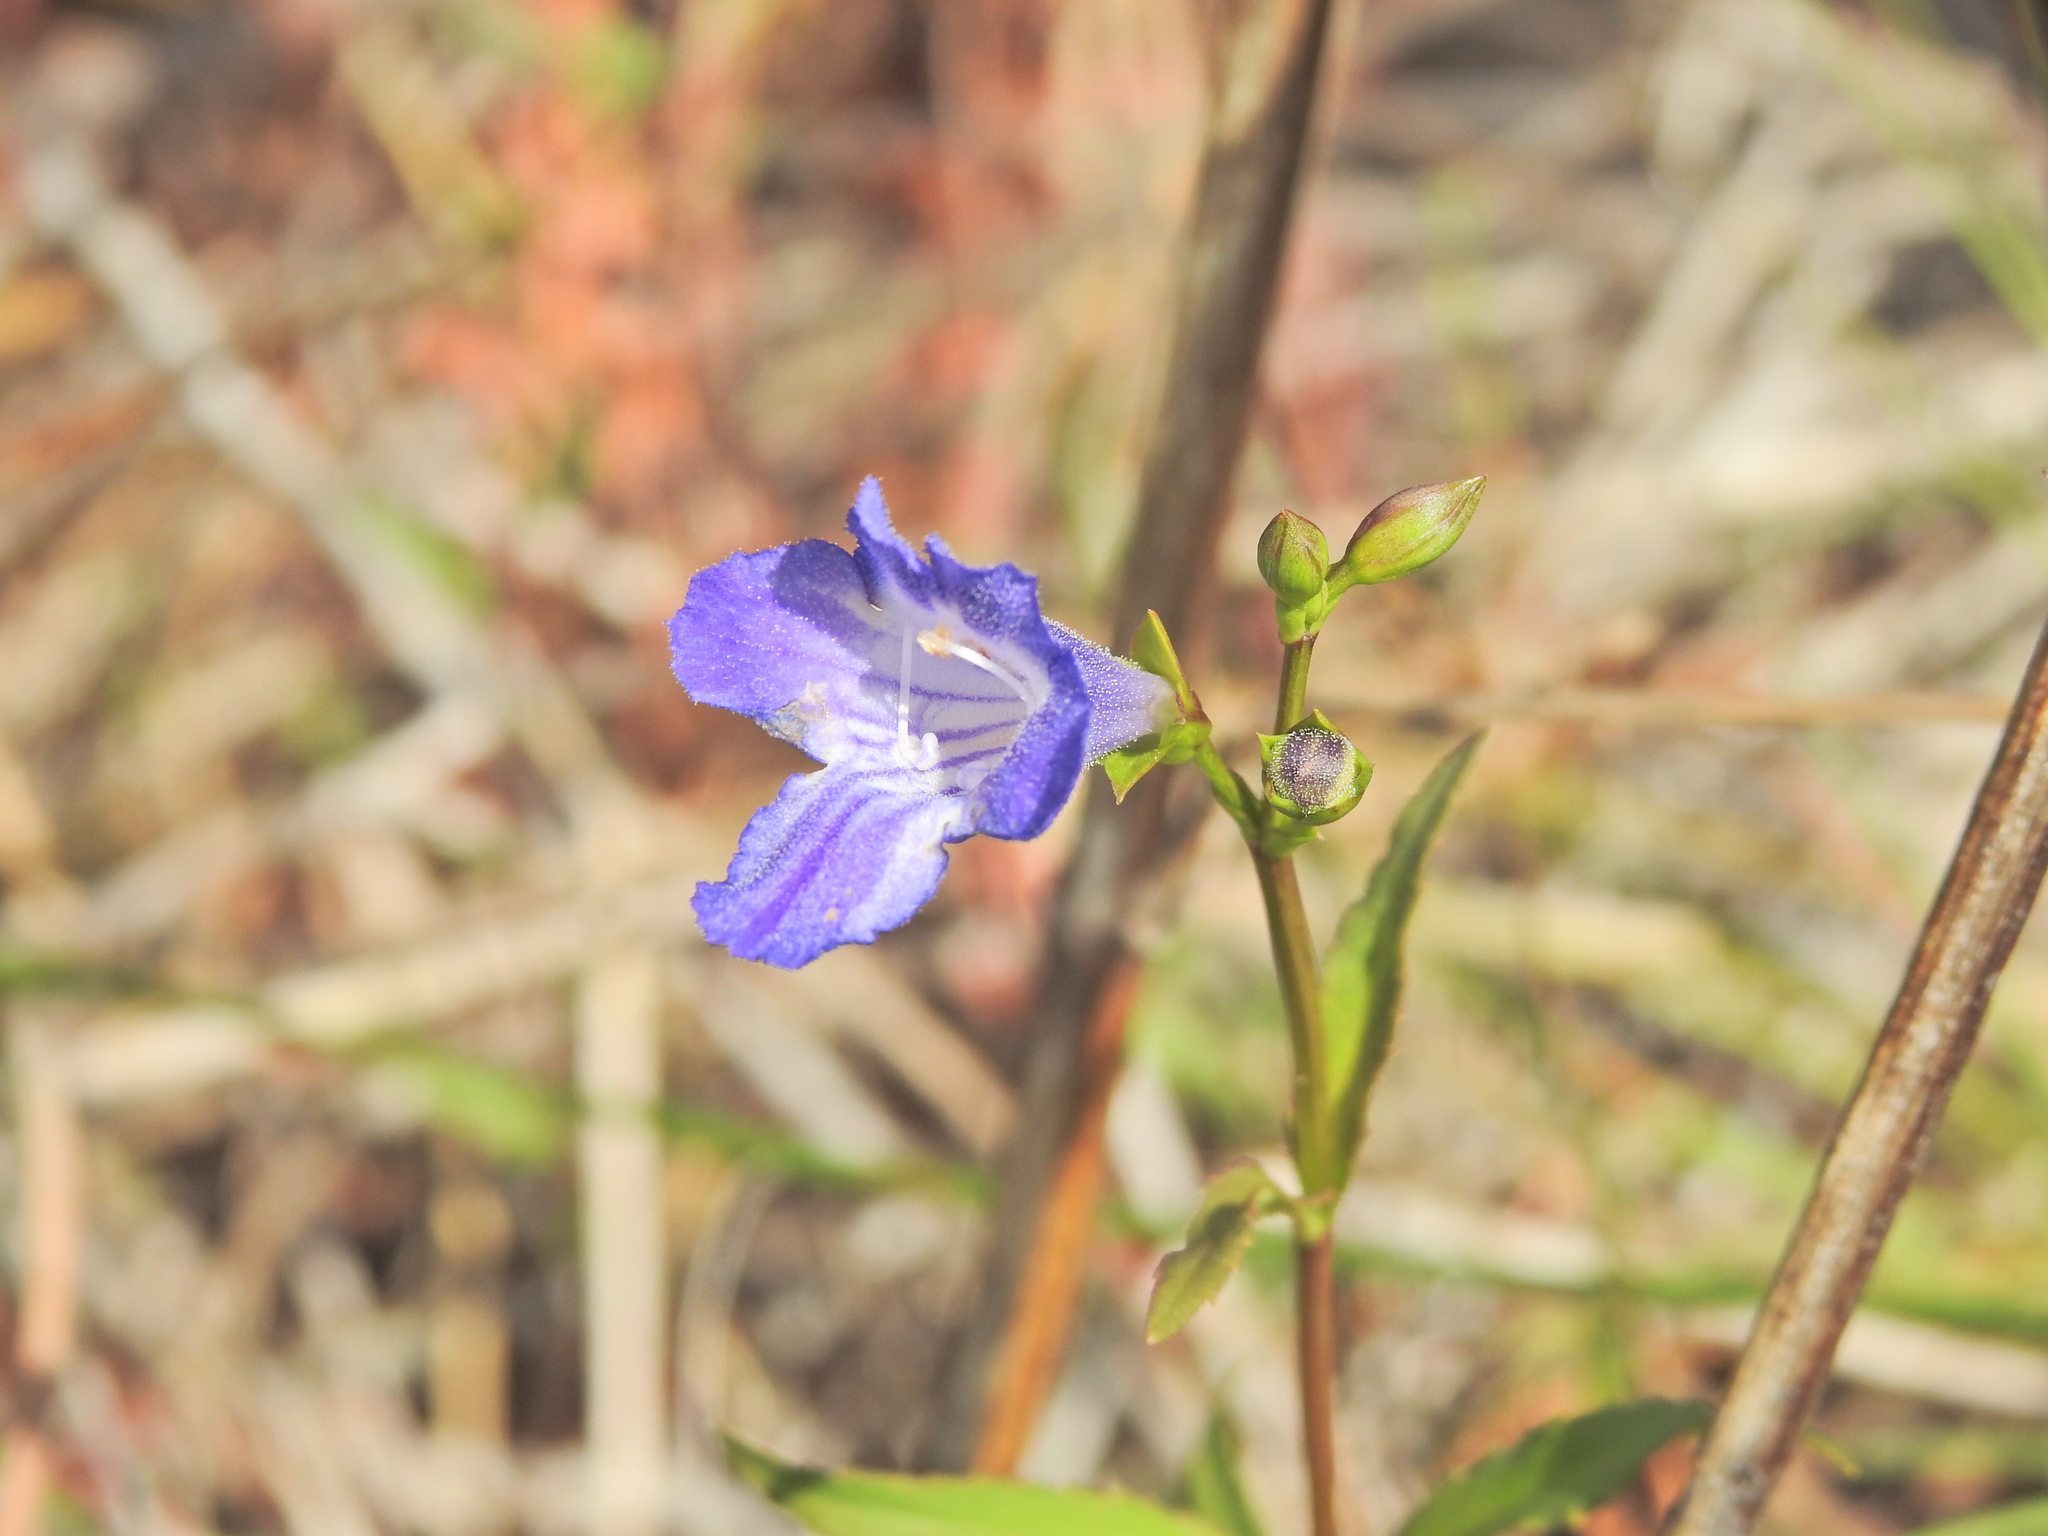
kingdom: Plantae
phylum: Tracheophyta
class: Magnoliopsida
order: Lamiales
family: Linderniaceae
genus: Artanema
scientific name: Artanema fimbriatum
